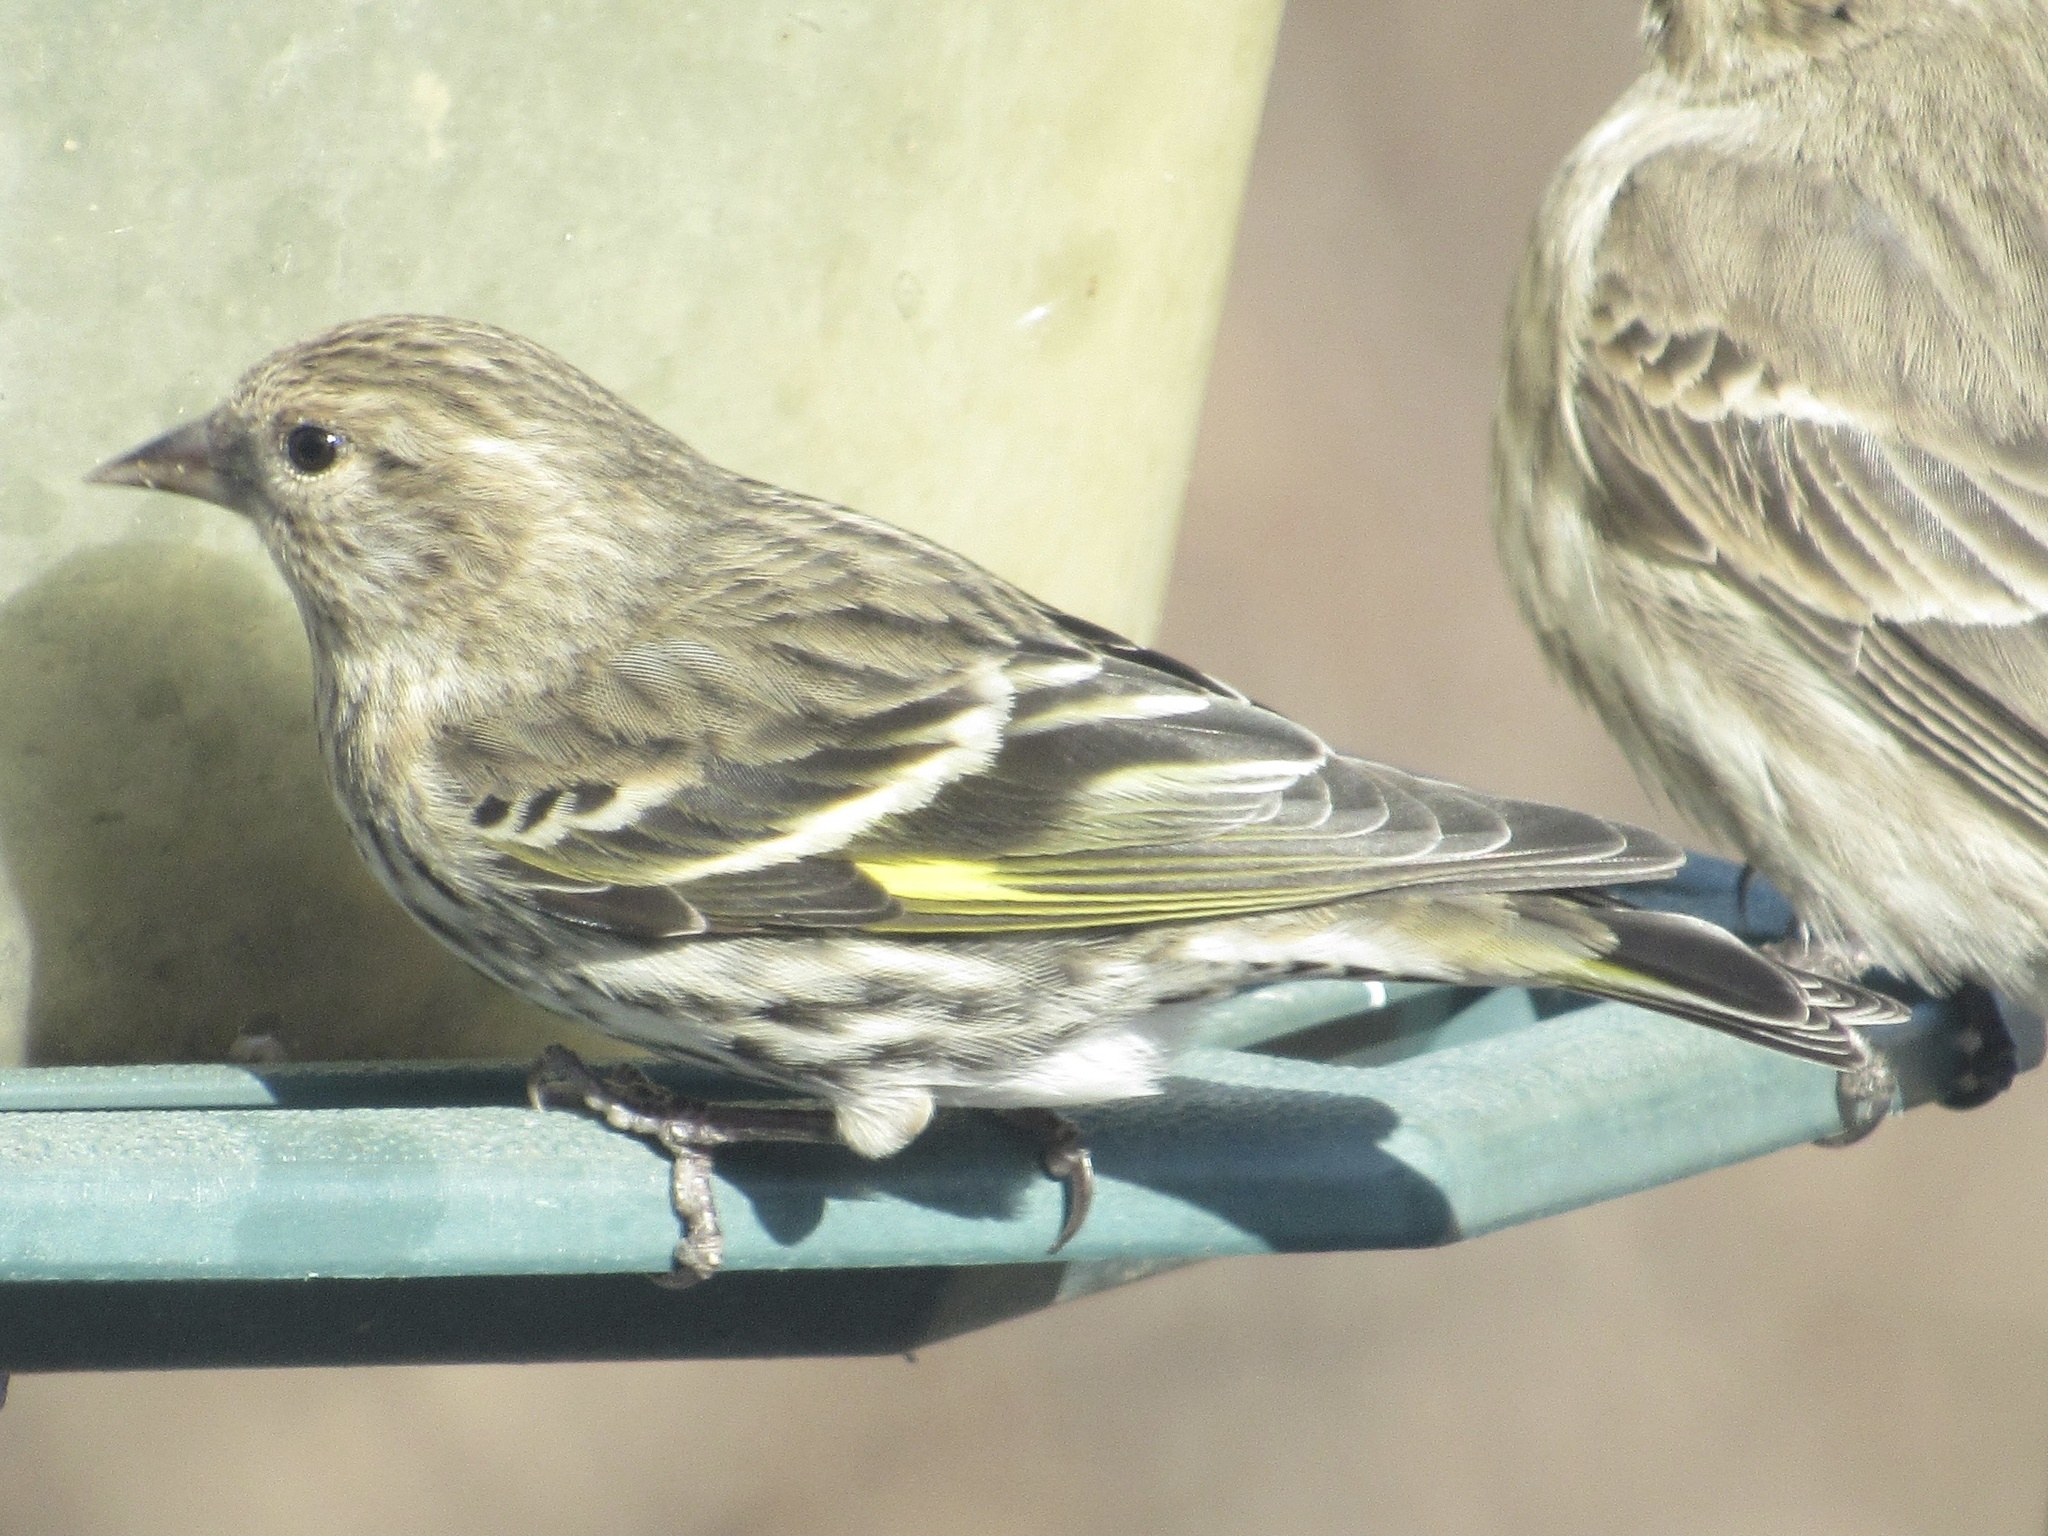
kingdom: Animalia
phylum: Chordata
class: Aves
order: Passeriformes
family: Fringillidae
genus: Spinus
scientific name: Spinus pinus
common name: Pine siskin
